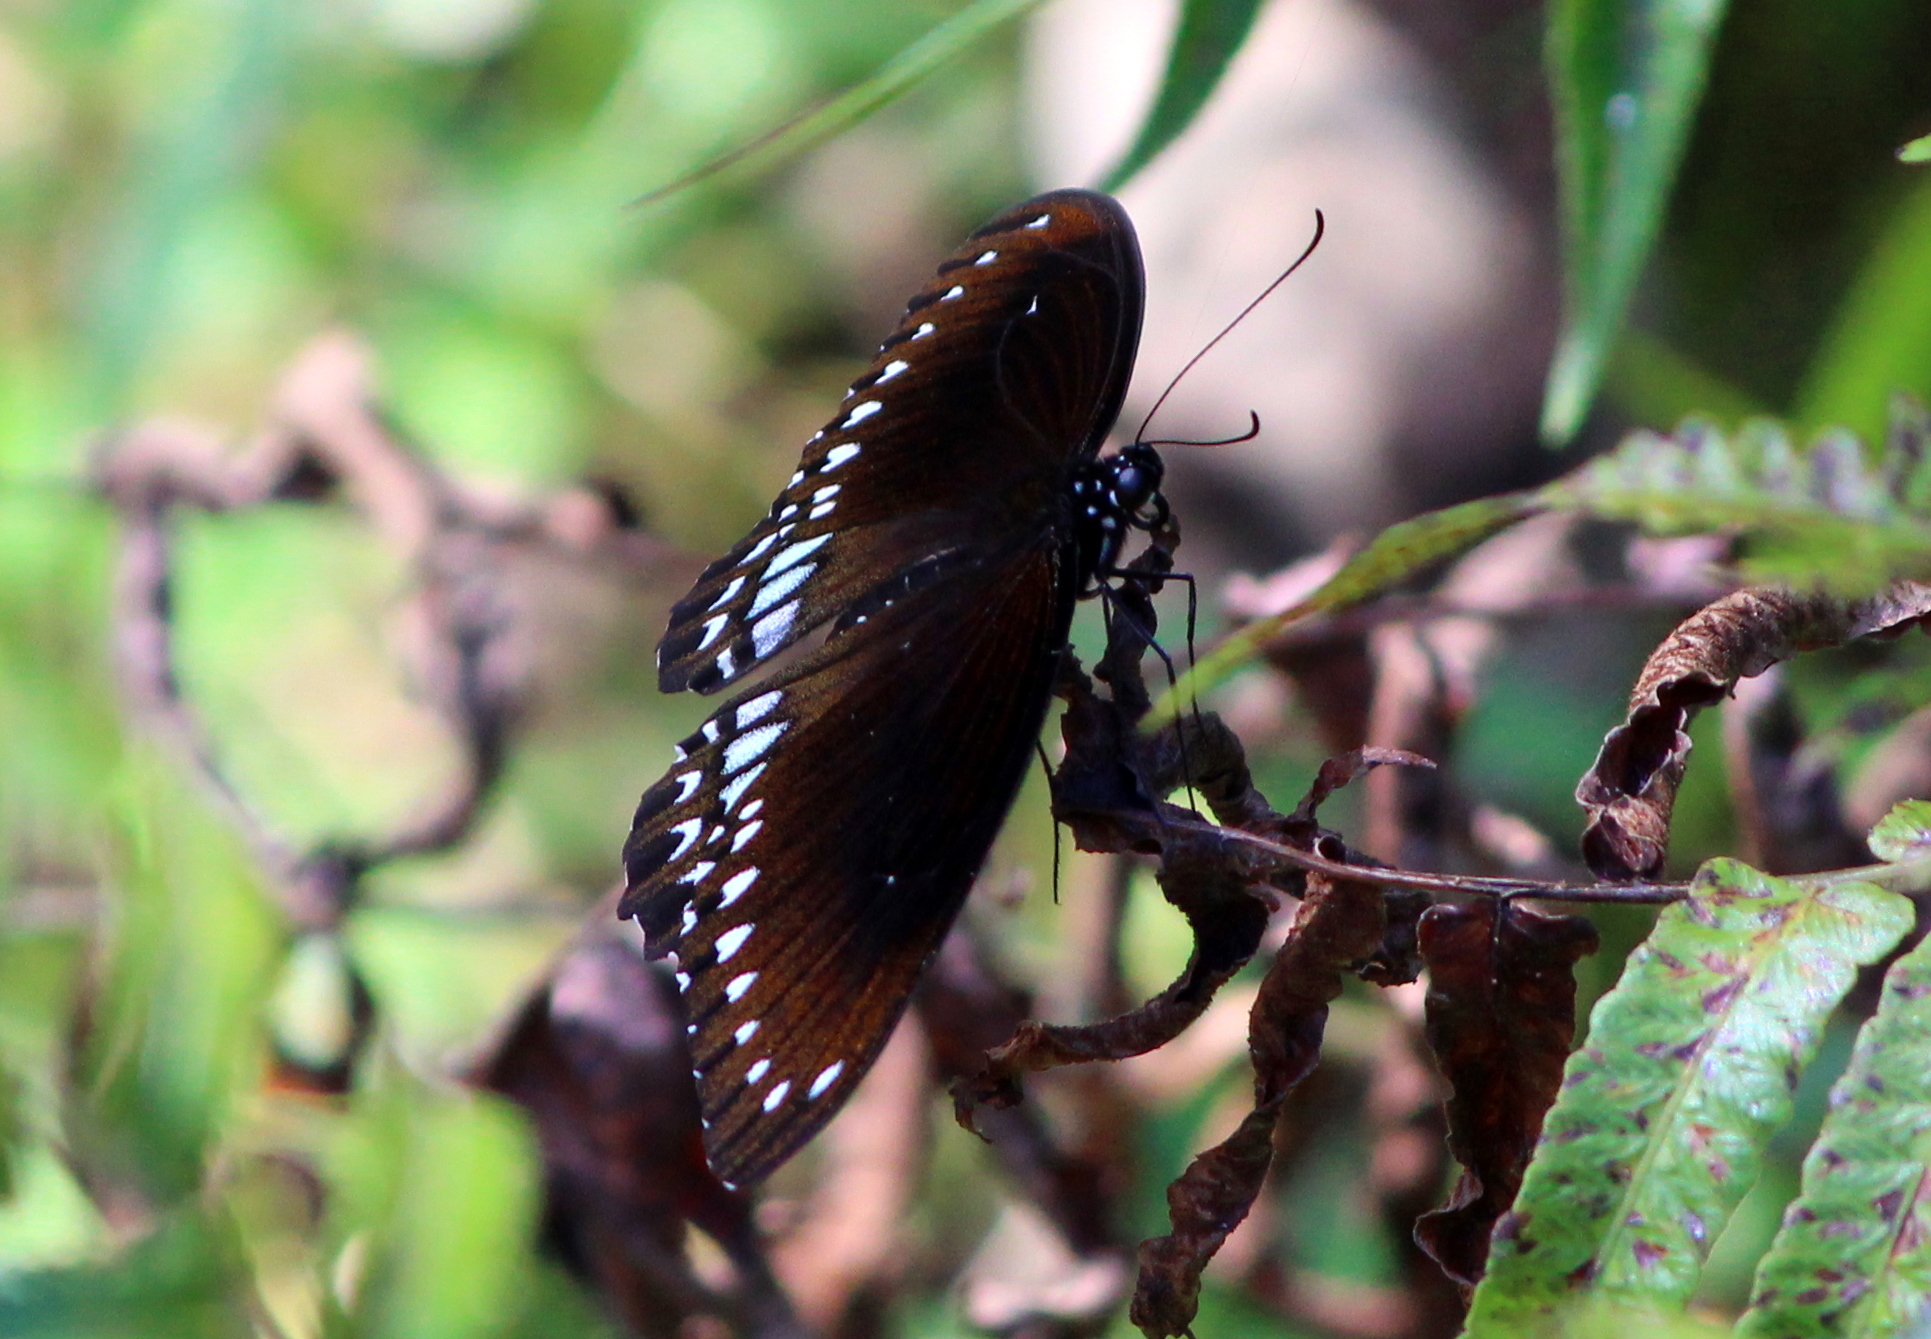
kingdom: Animalia
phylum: Arthropoda
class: Insecta
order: Lepidoptera
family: Papilionidae
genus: Papilio
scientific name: Papilio dravidarum
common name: Malabar raven
